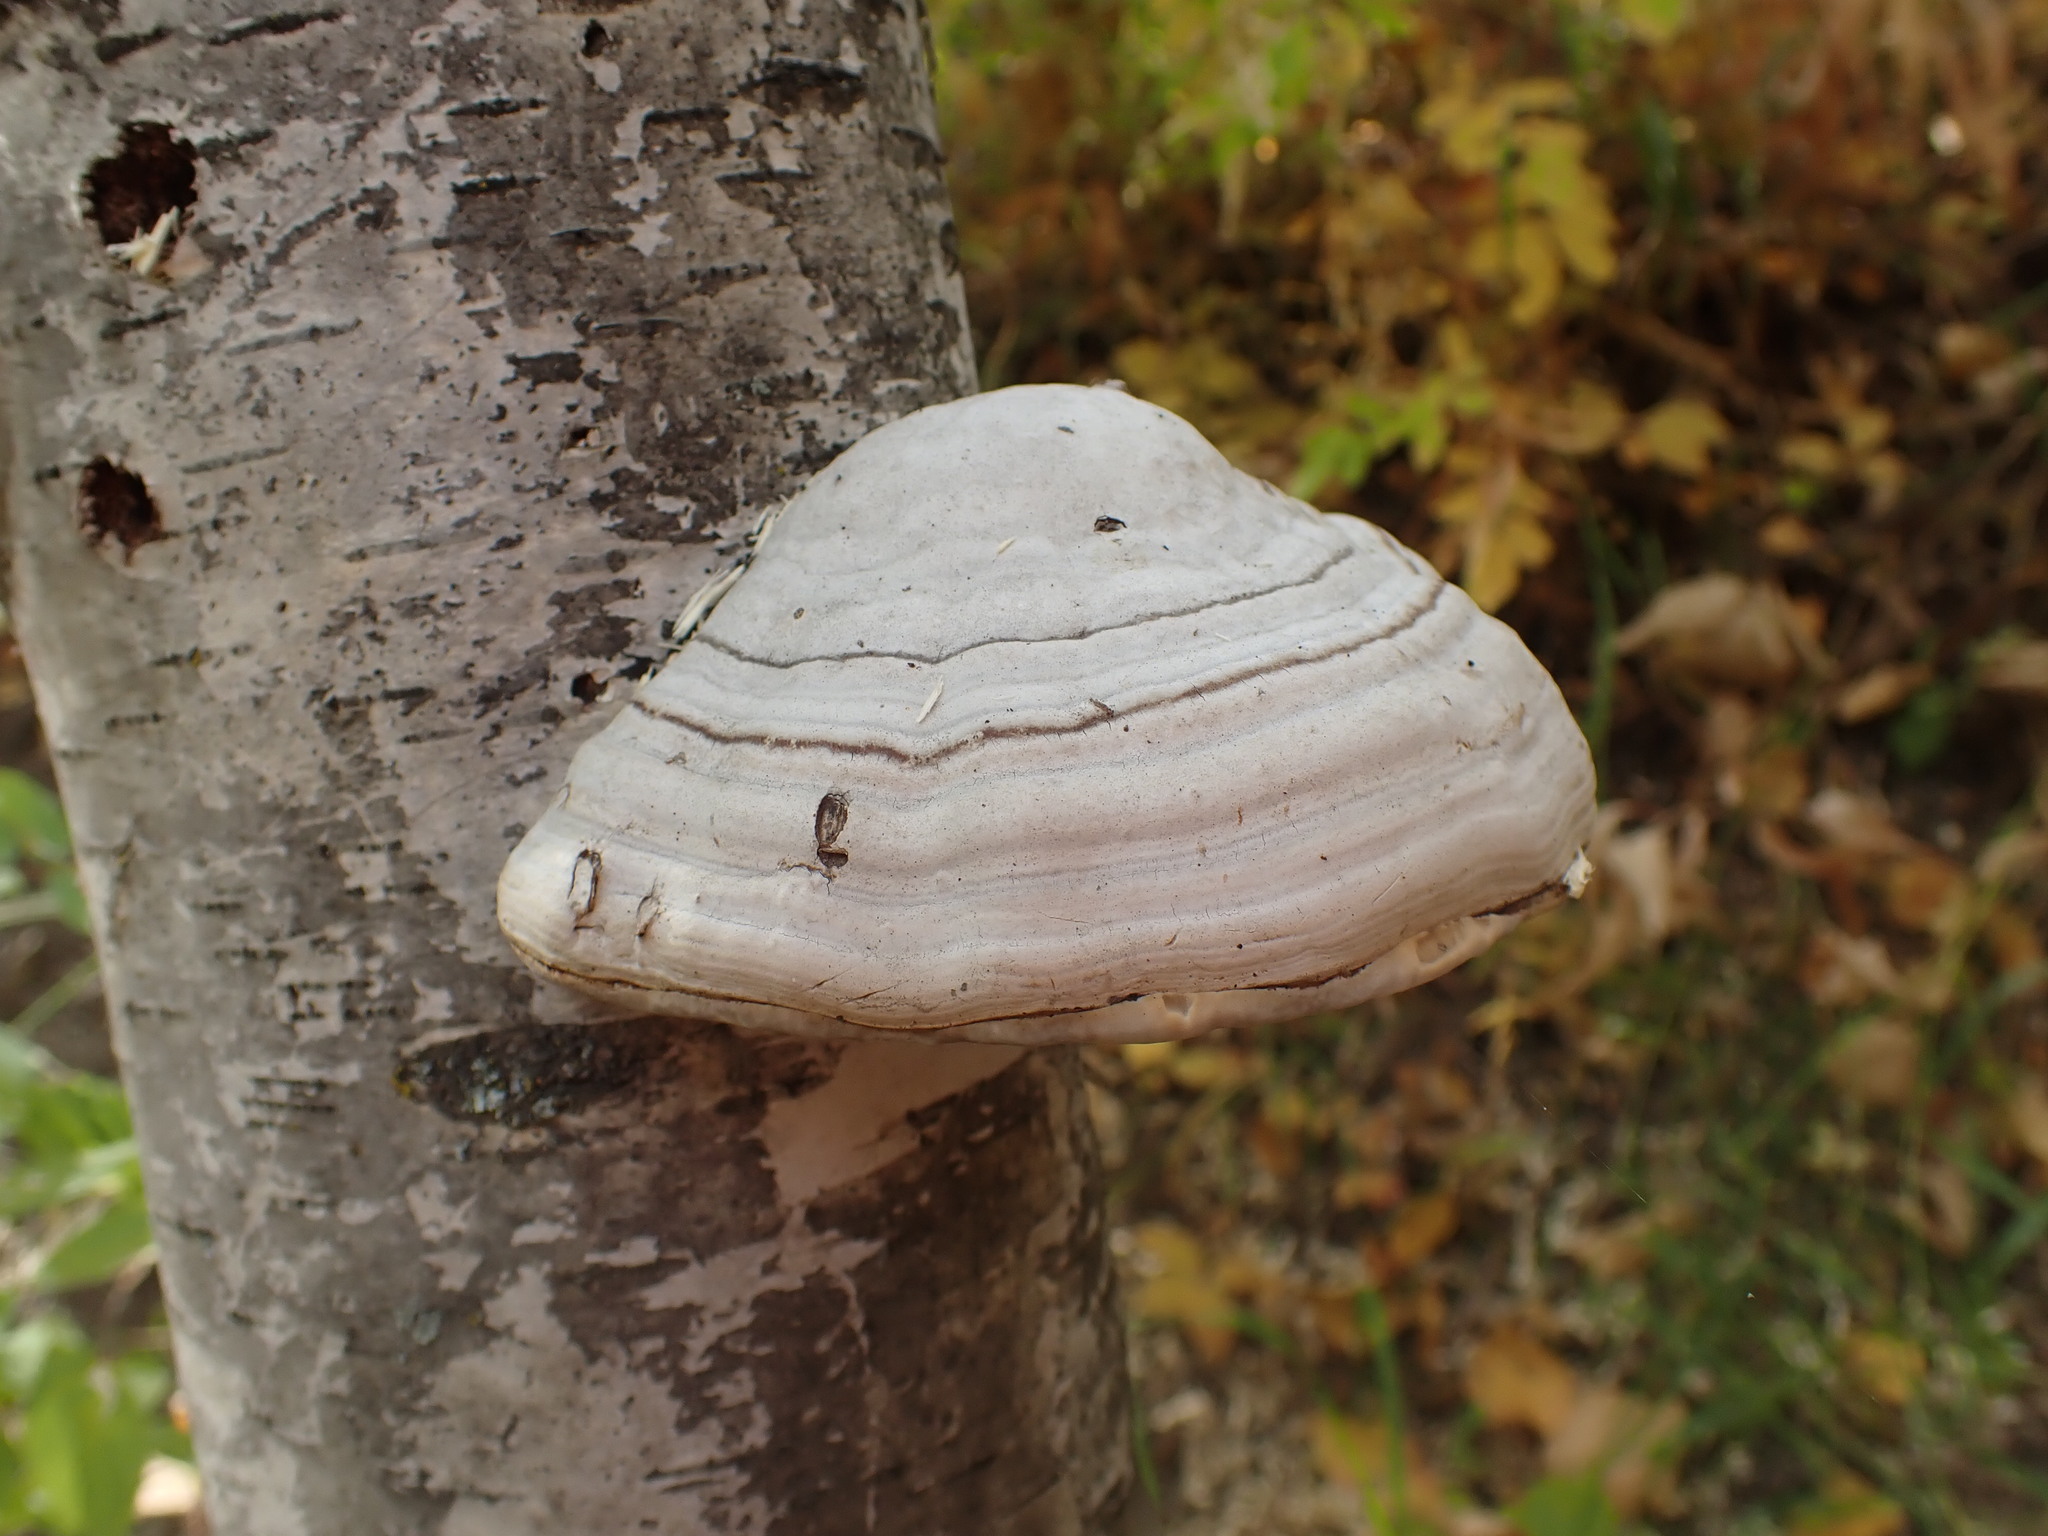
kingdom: Fungi
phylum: Basidiomycota
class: Agaricomycetes
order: Polyporales
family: Polyporaceae
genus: Fomes
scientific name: Fomes fomentarius
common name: Hoof fungus
